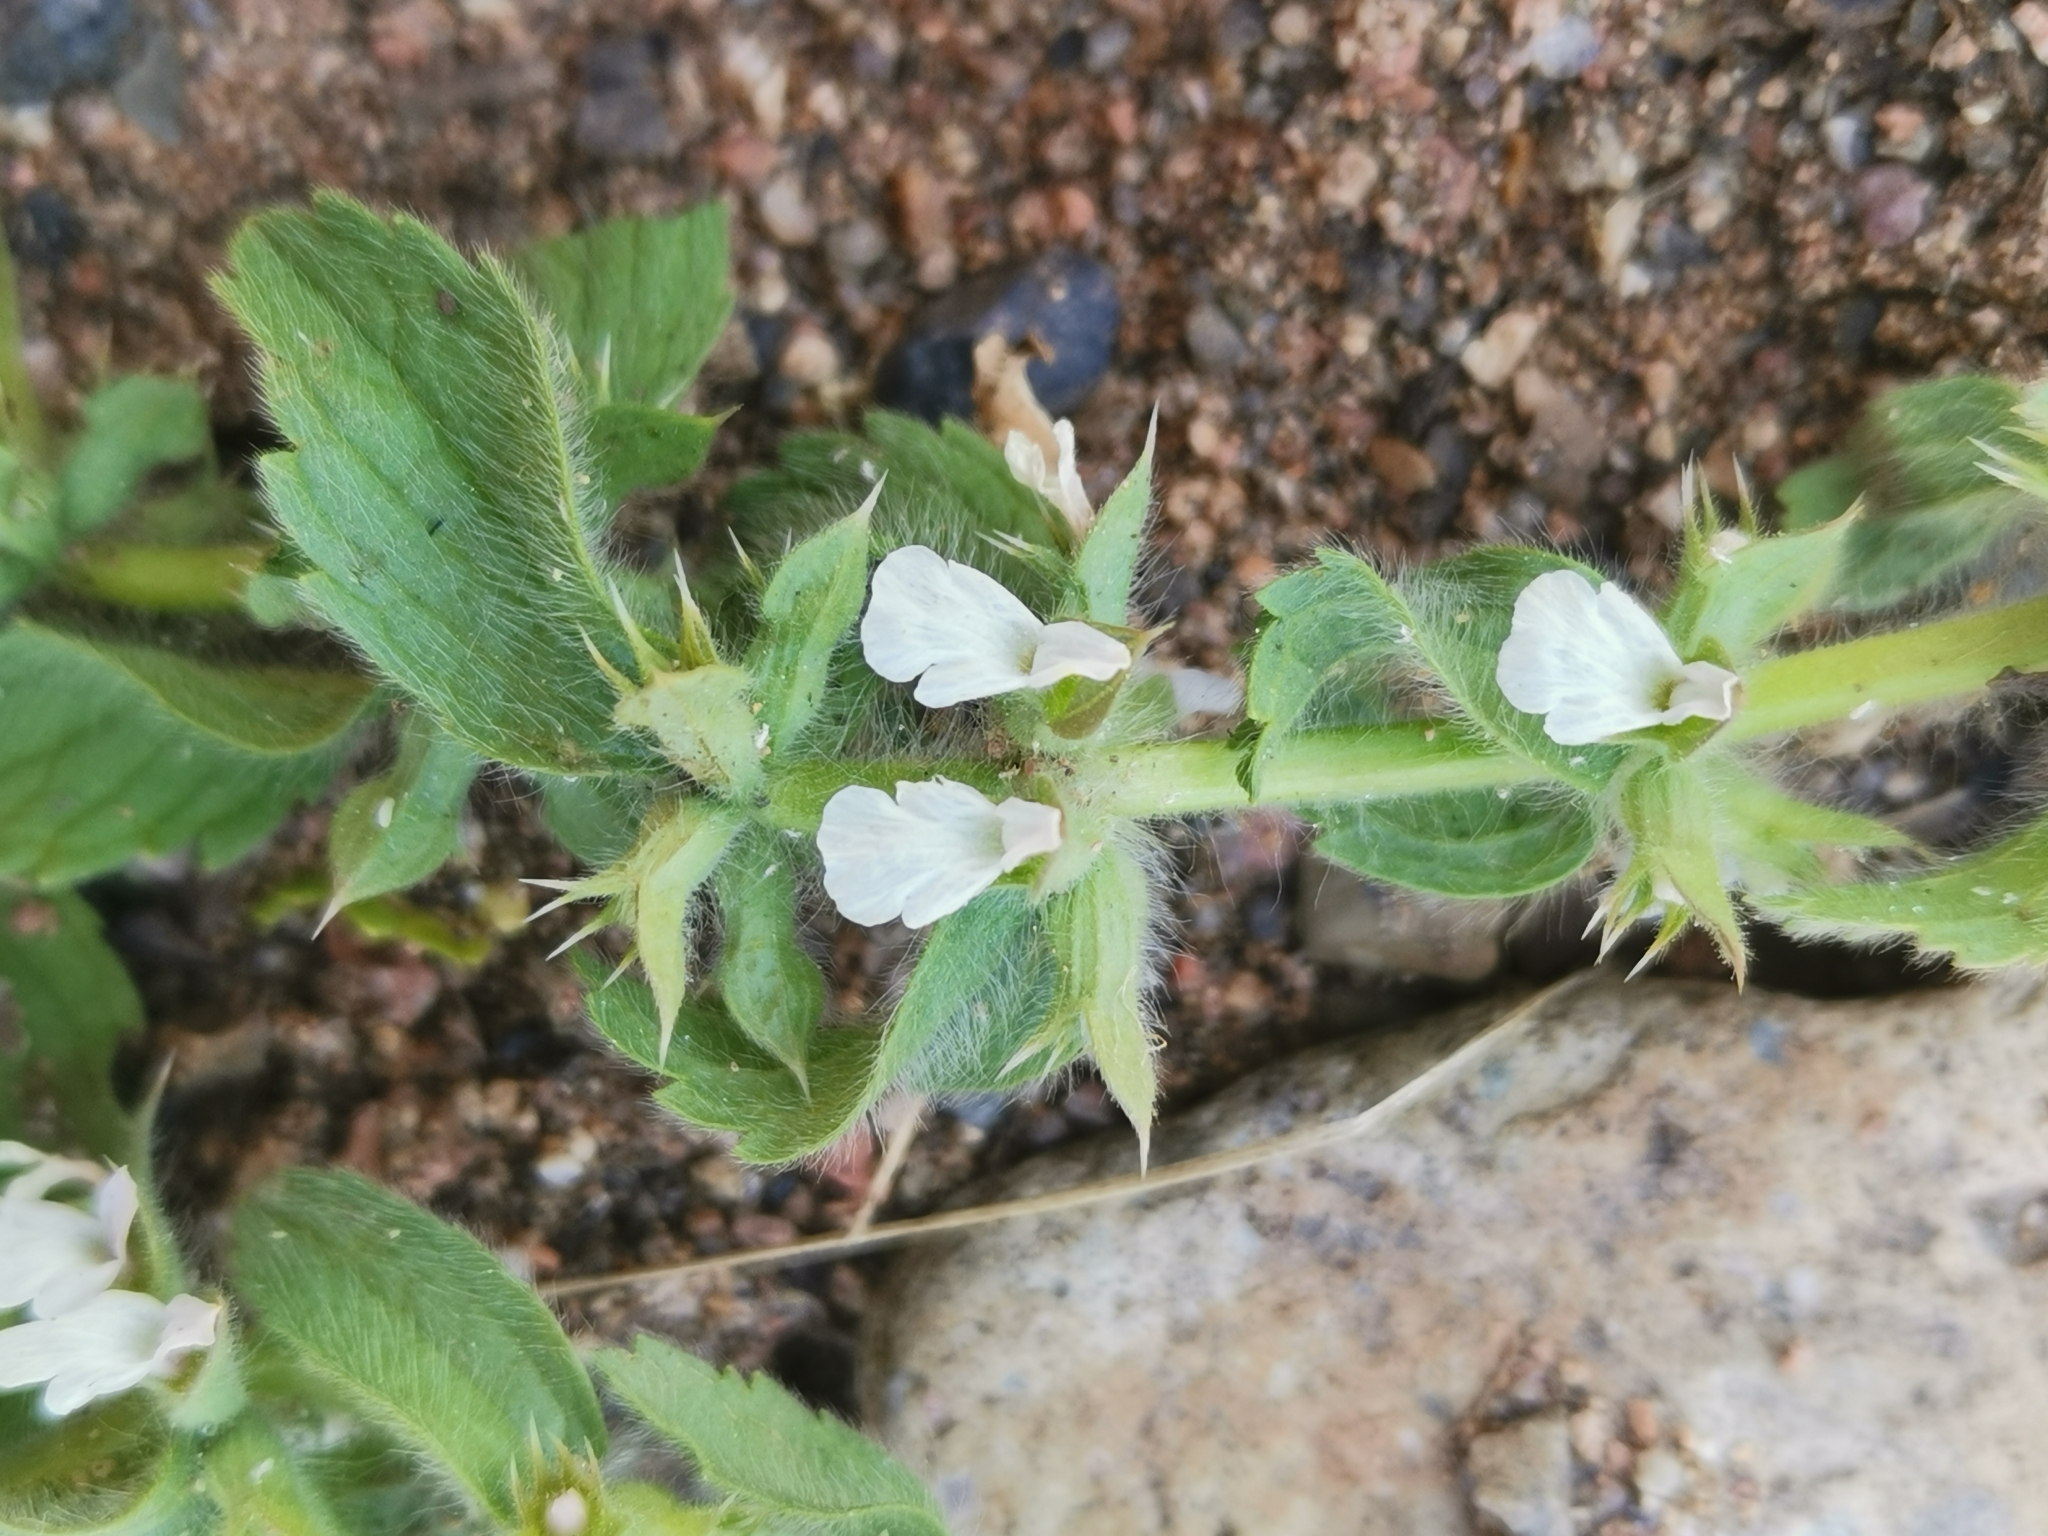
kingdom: Plantae
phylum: Tracheophyta
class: Magnoliopsida
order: Lamiales
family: Lamiaceae
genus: Sideritis
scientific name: Sideritis romana
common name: Simplebeak ironwort
